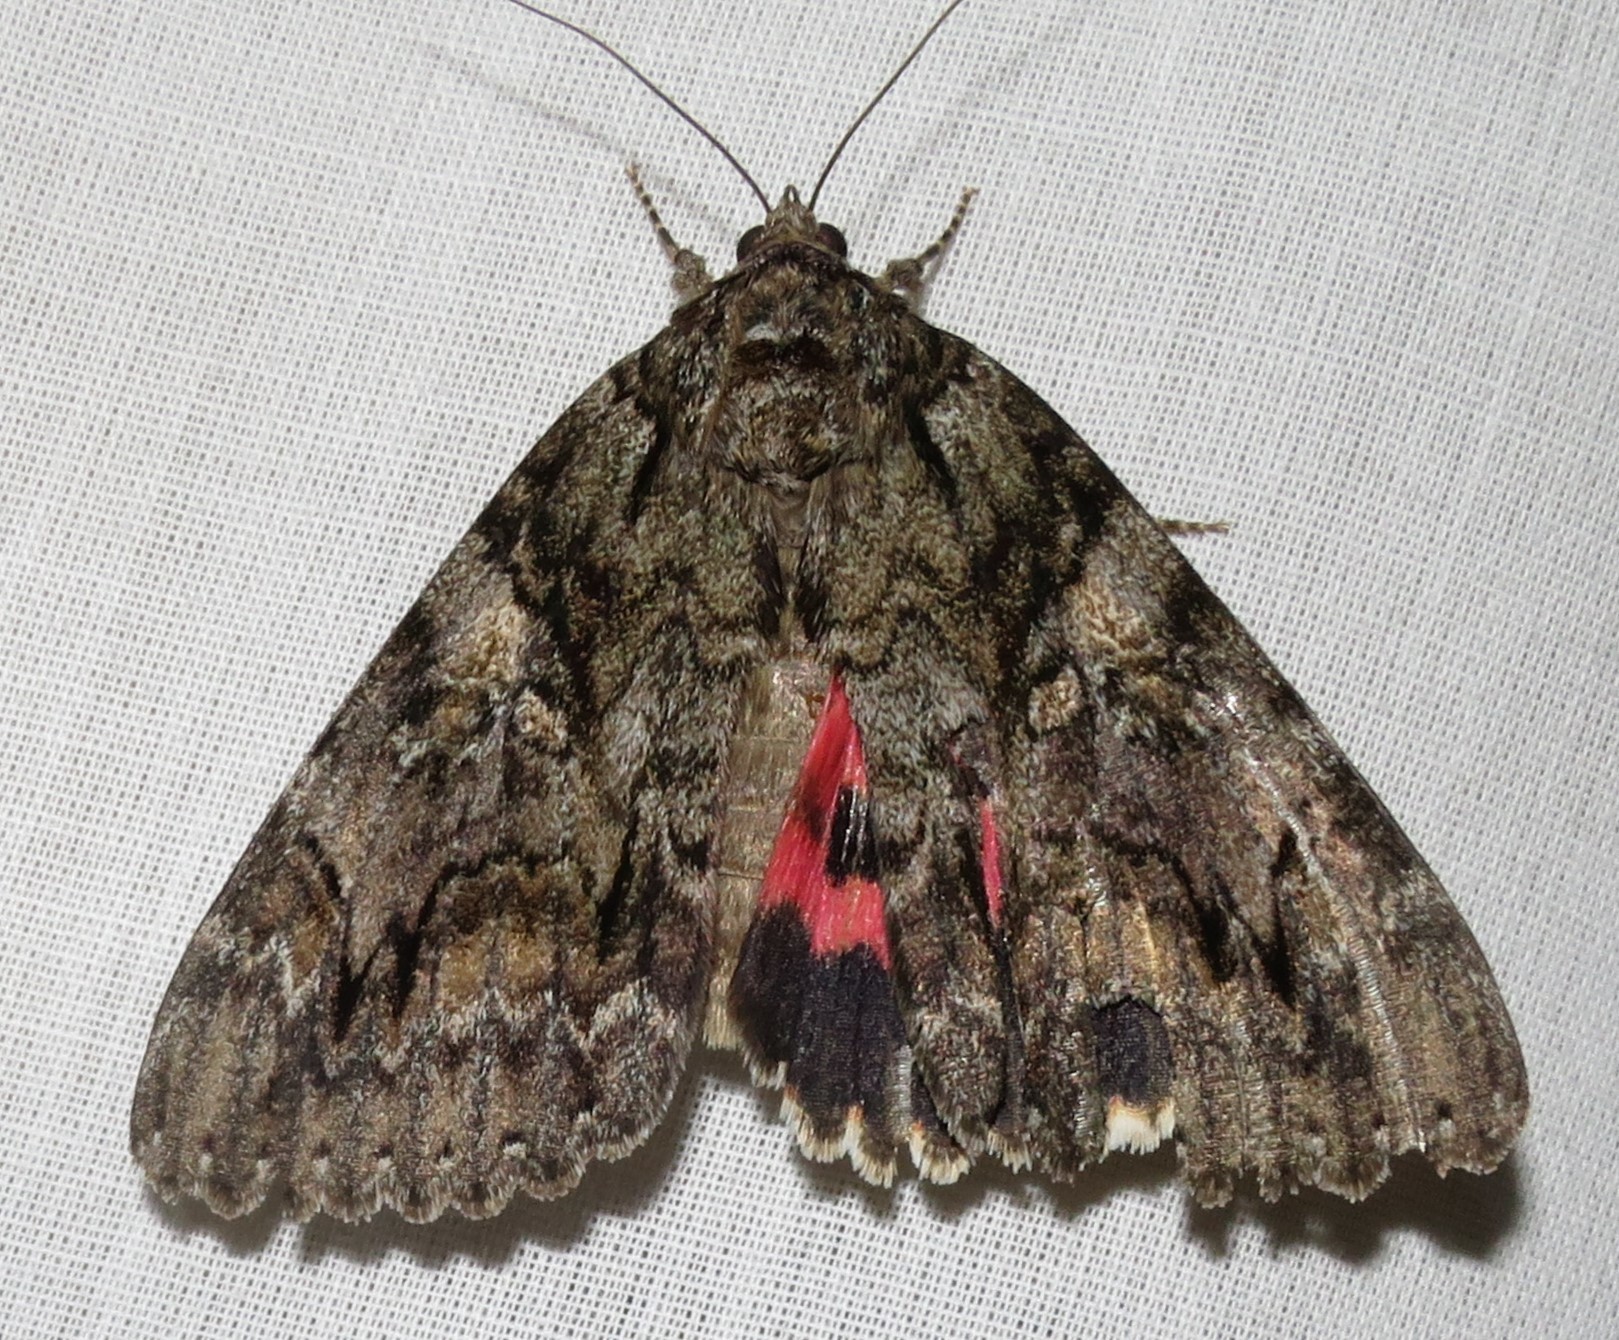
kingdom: Animalia
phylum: Arthropoda
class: Insecta
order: Lepidoptera
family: Erebidae
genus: Catocala
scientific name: Catocala aholibah
